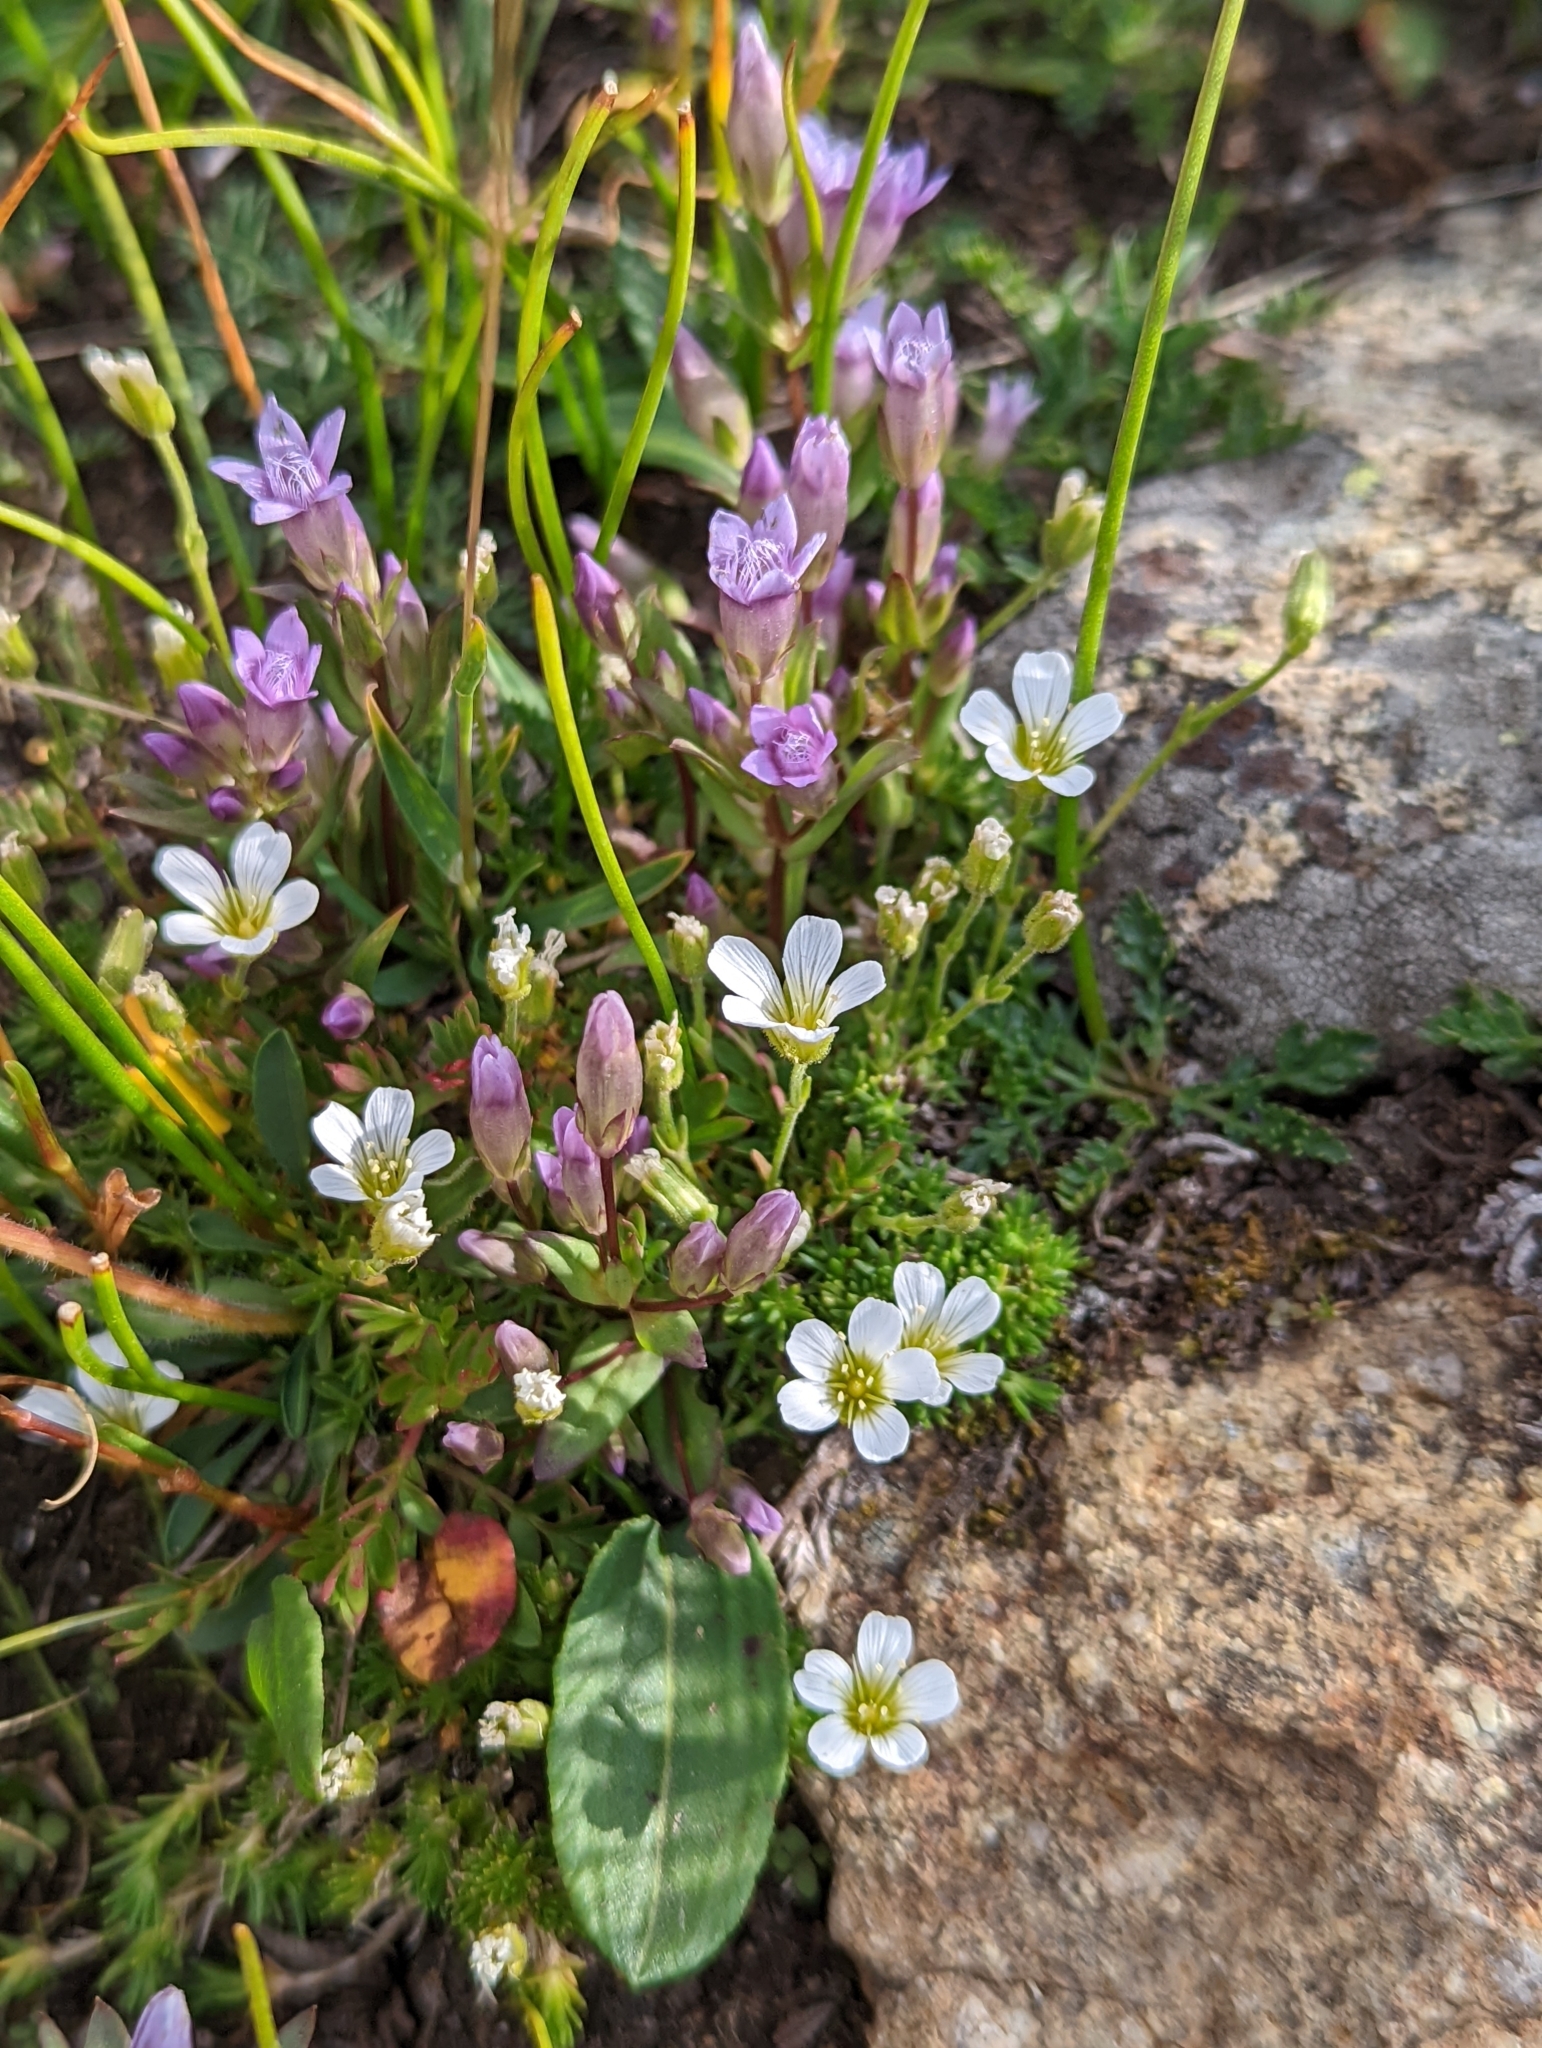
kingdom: Plantae
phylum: Tracheophyta
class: Magnoliopsida
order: Caryophyllales
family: Caryophyllaceae
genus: Cherleria
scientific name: Cherleria obtusiloba
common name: Alpine stitchwort
